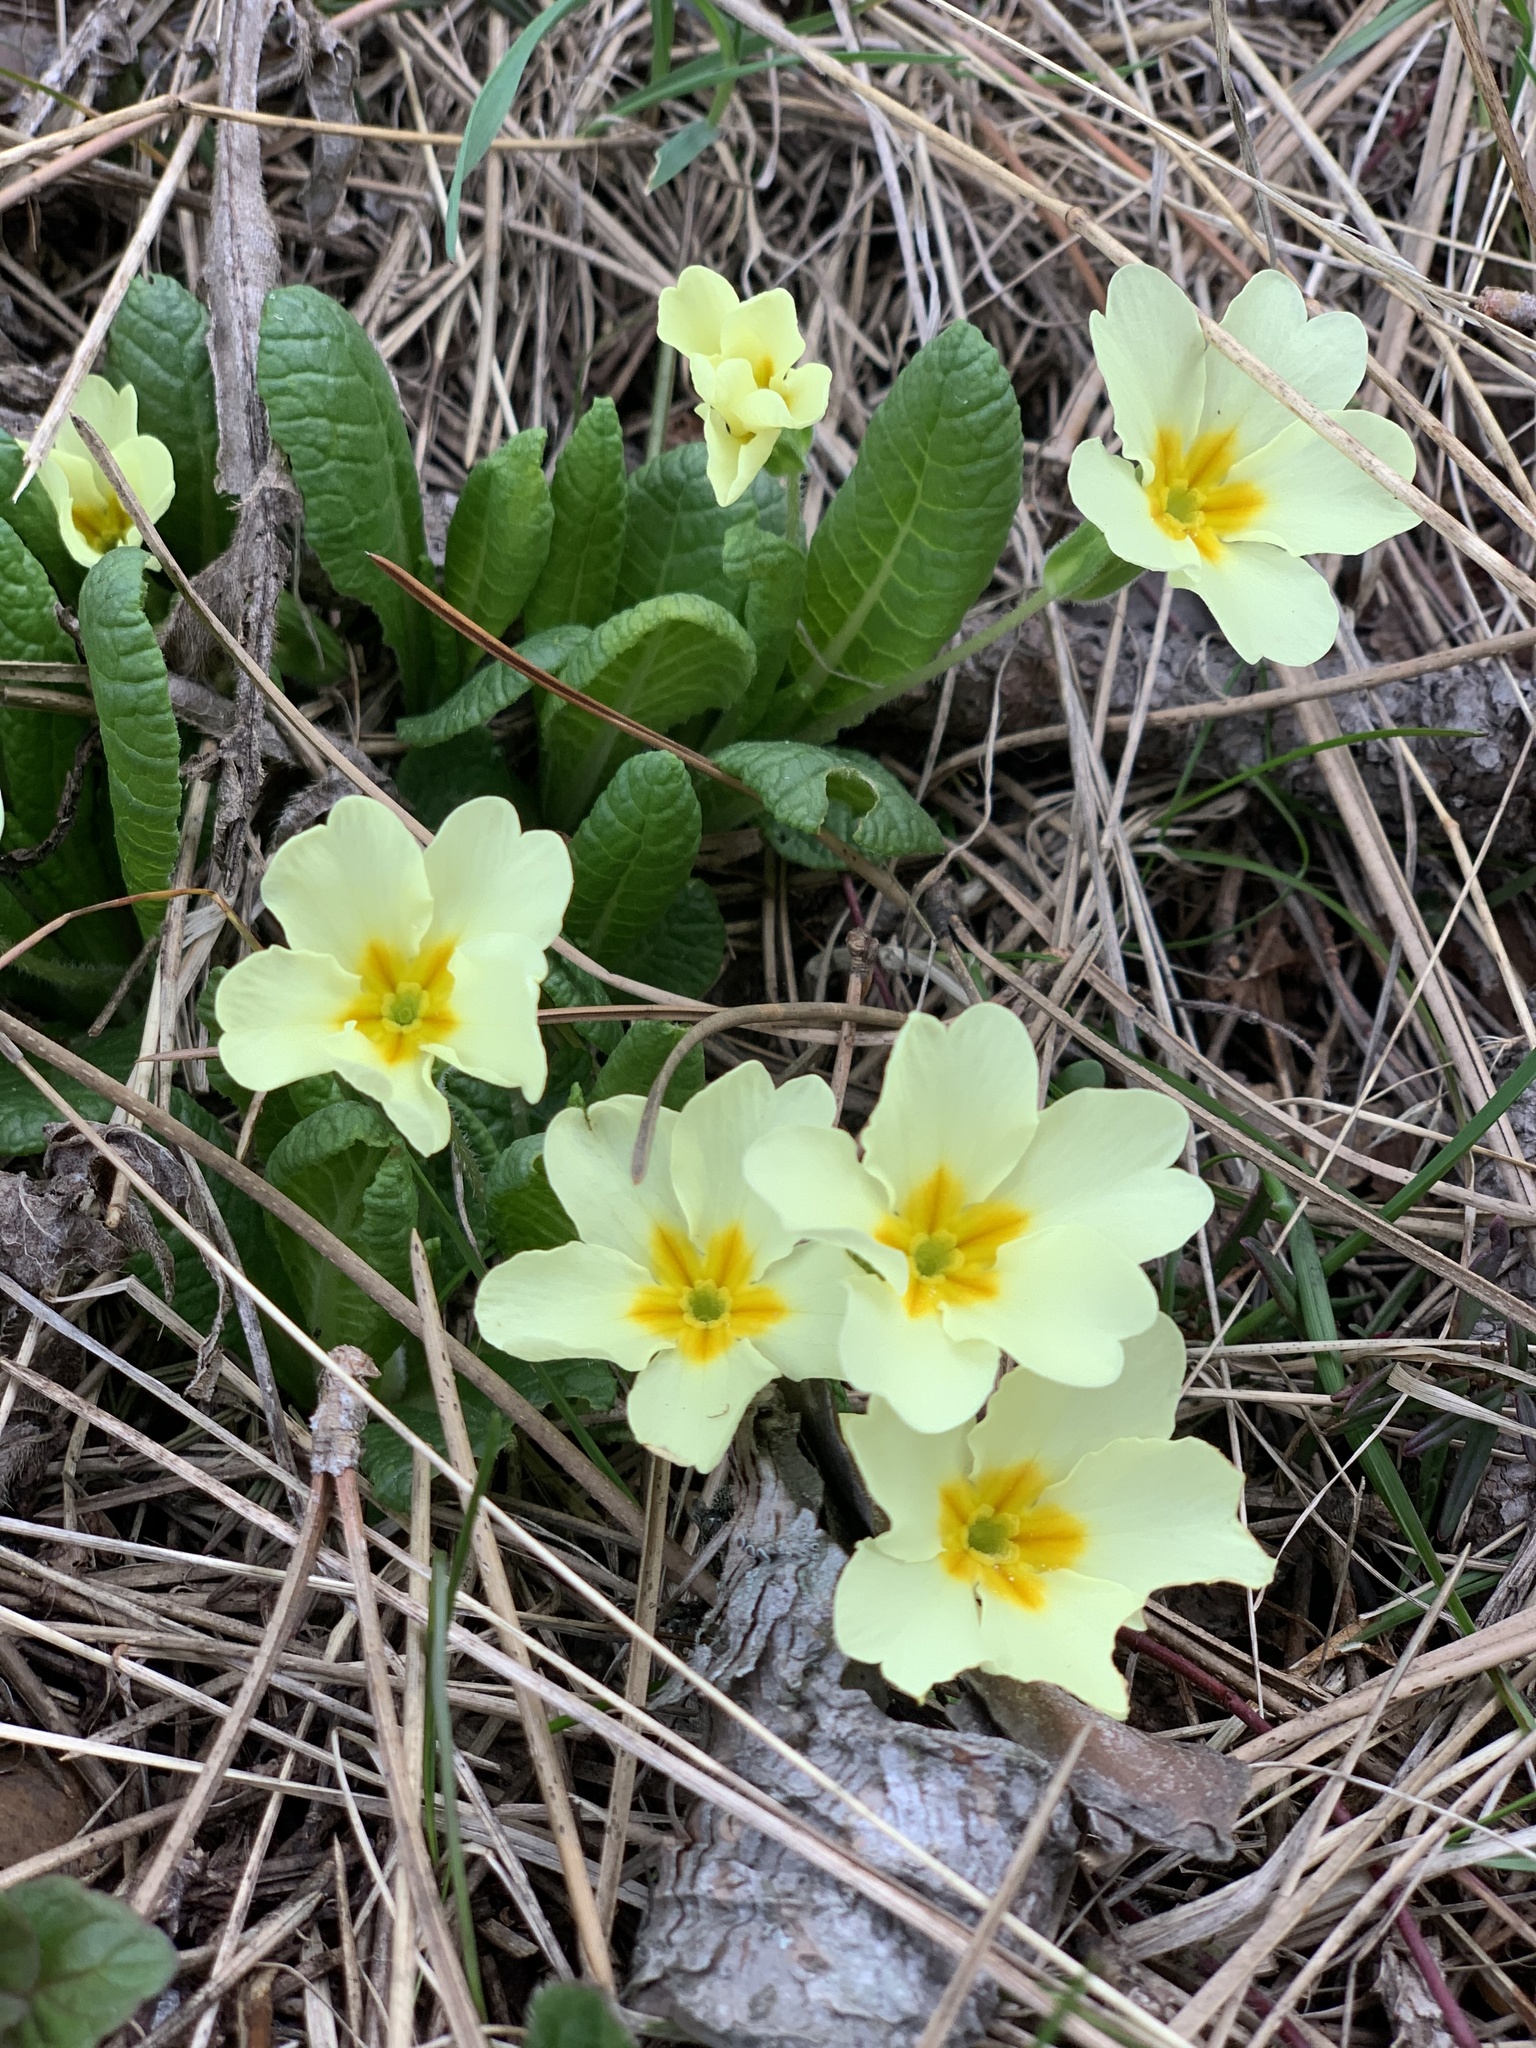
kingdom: Plantae
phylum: Tracheophyta
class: Magnoliopsida
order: Ericales
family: Primulaceae
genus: Primula
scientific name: Primula vulgaris
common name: Primrose
